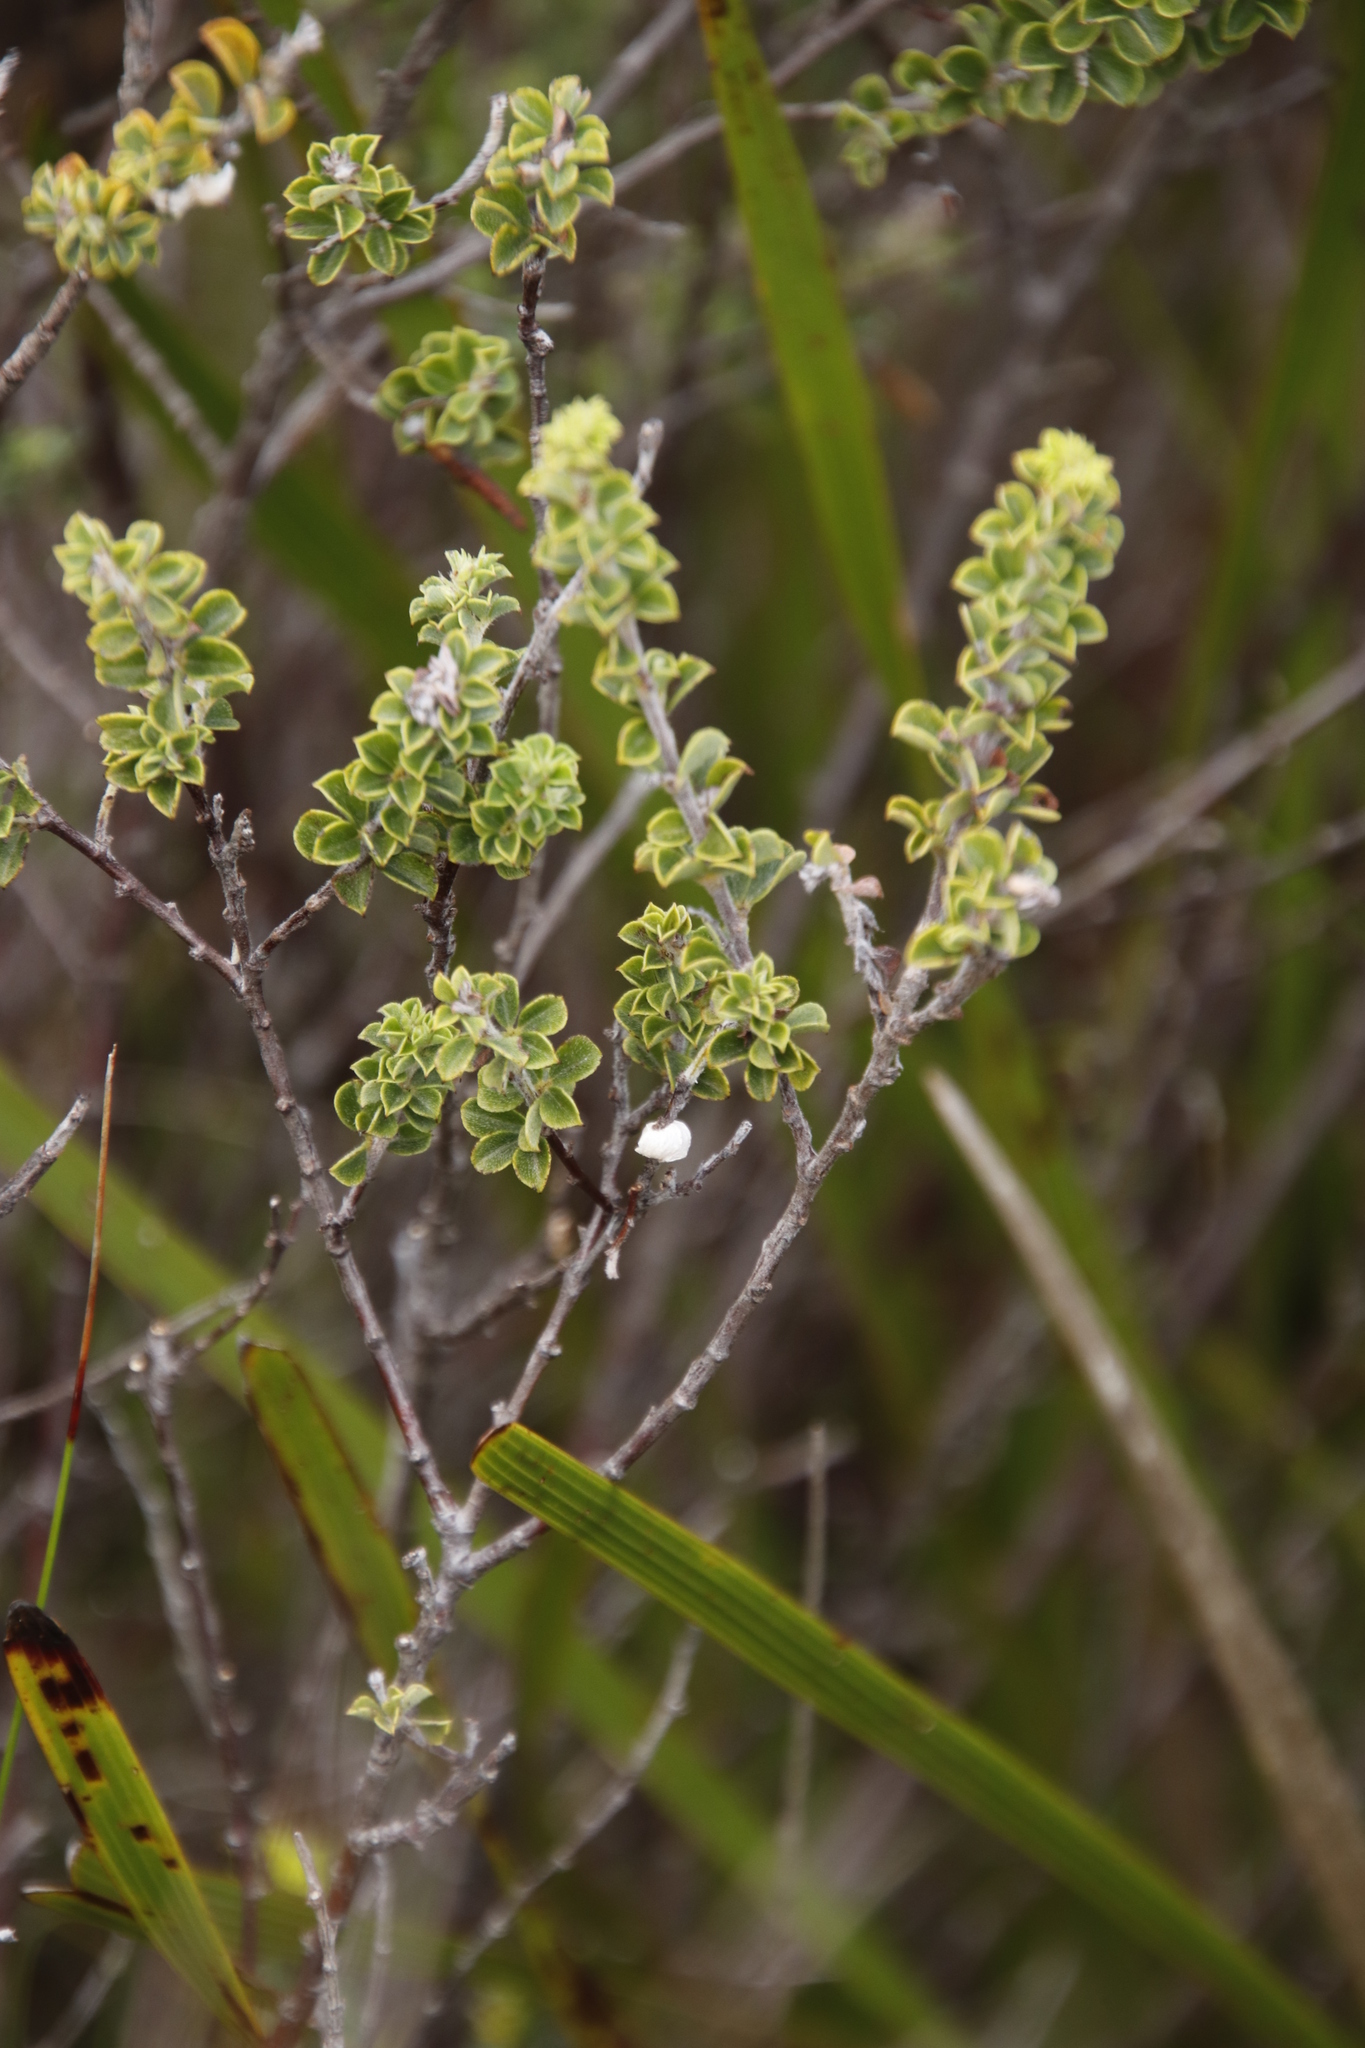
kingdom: Plantae
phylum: Tracheophyta
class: Magnoliopsida
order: Fabales
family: Fabaceae
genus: Indigofera
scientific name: Indigofera candolleana
